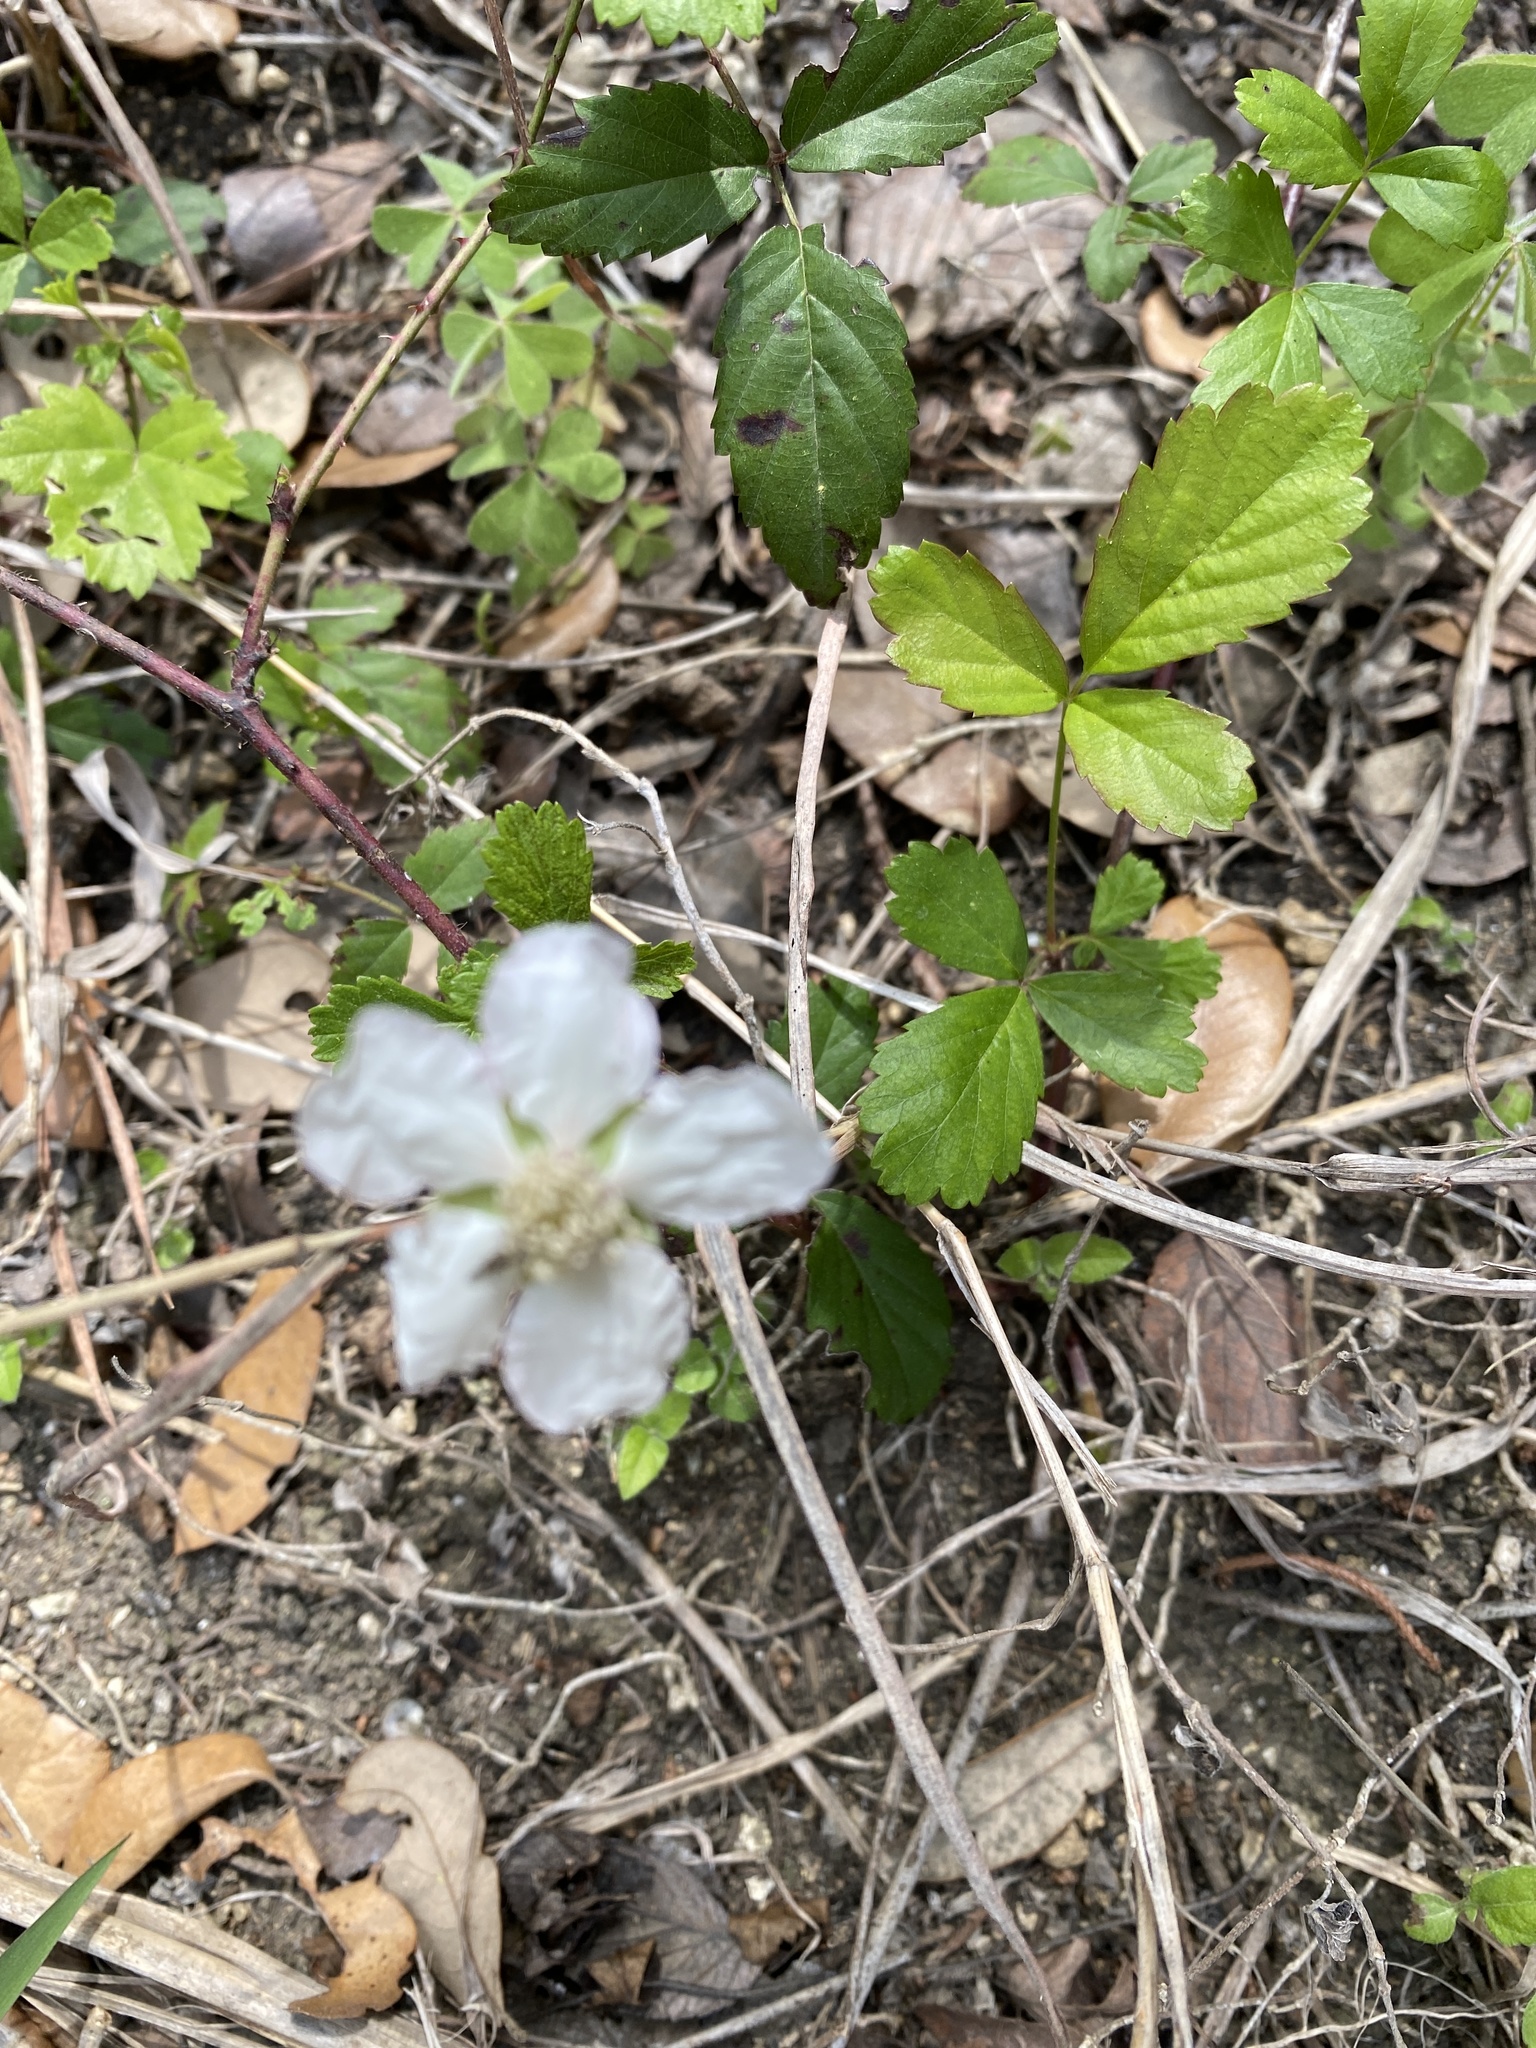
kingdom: Plantae
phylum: Tracheophyta
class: Magnoliopsida
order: Rosales
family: Rosaceae
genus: Rubus
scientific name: Rubus trivialis
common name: Southern dewberry
